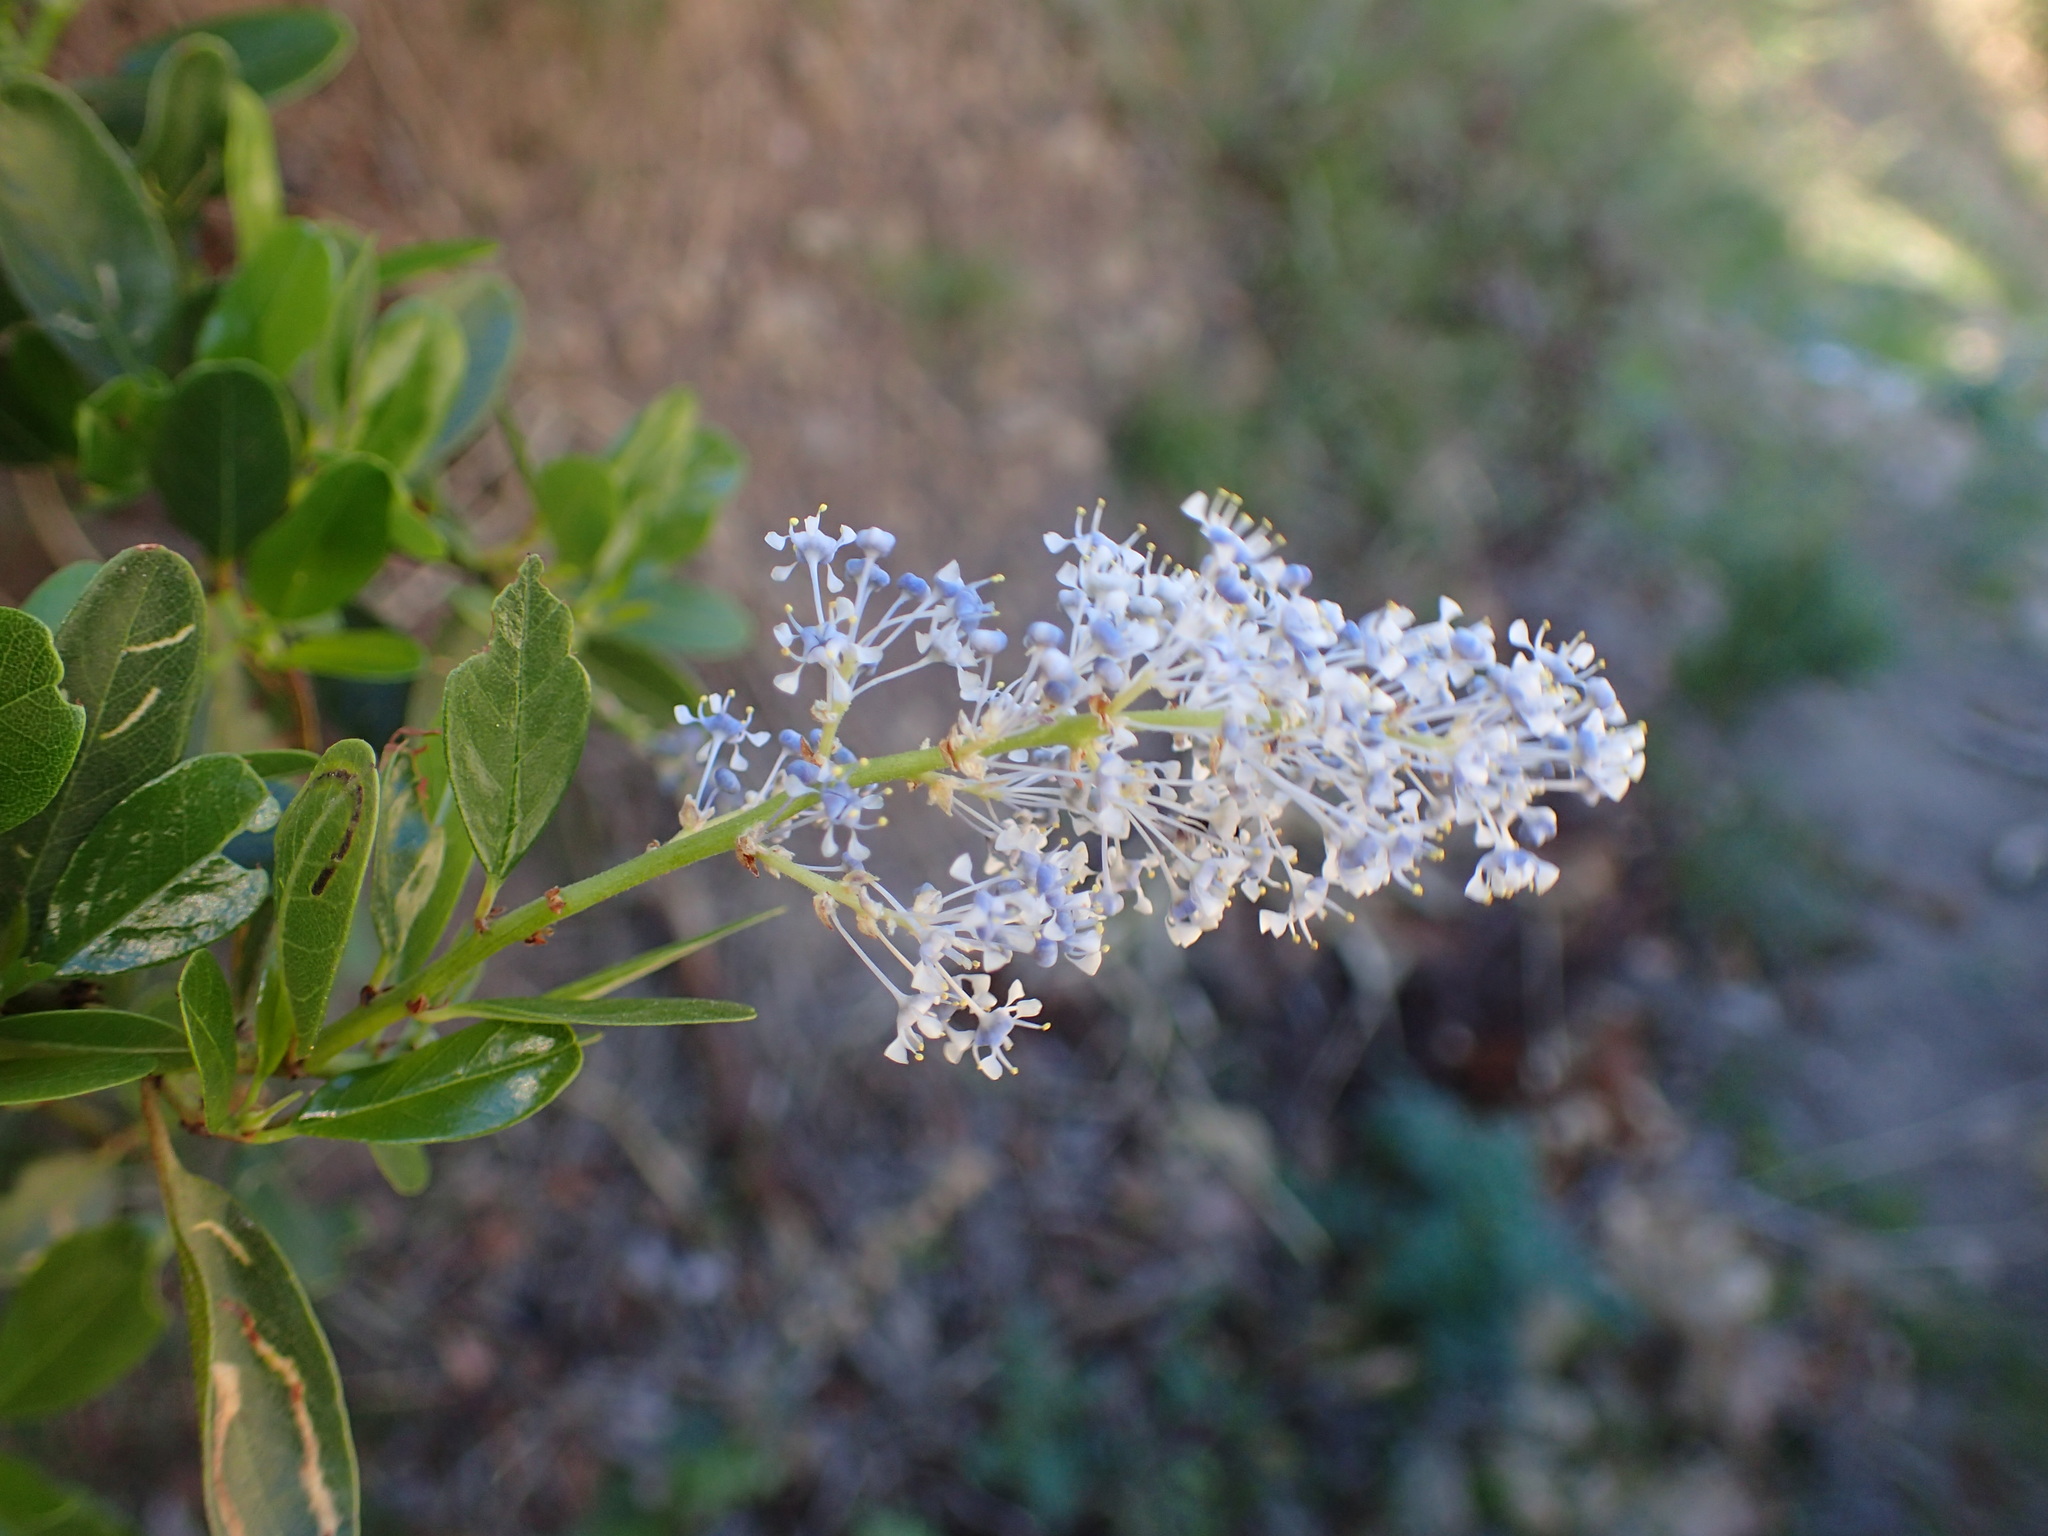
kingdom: Plantae
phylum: Tracheophyta
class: Magnoliopsida
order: Rosales
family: Rhamnaceae
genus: Ceanothus
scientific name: Ceanothus spinosus
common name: Greenbark whitethorn
